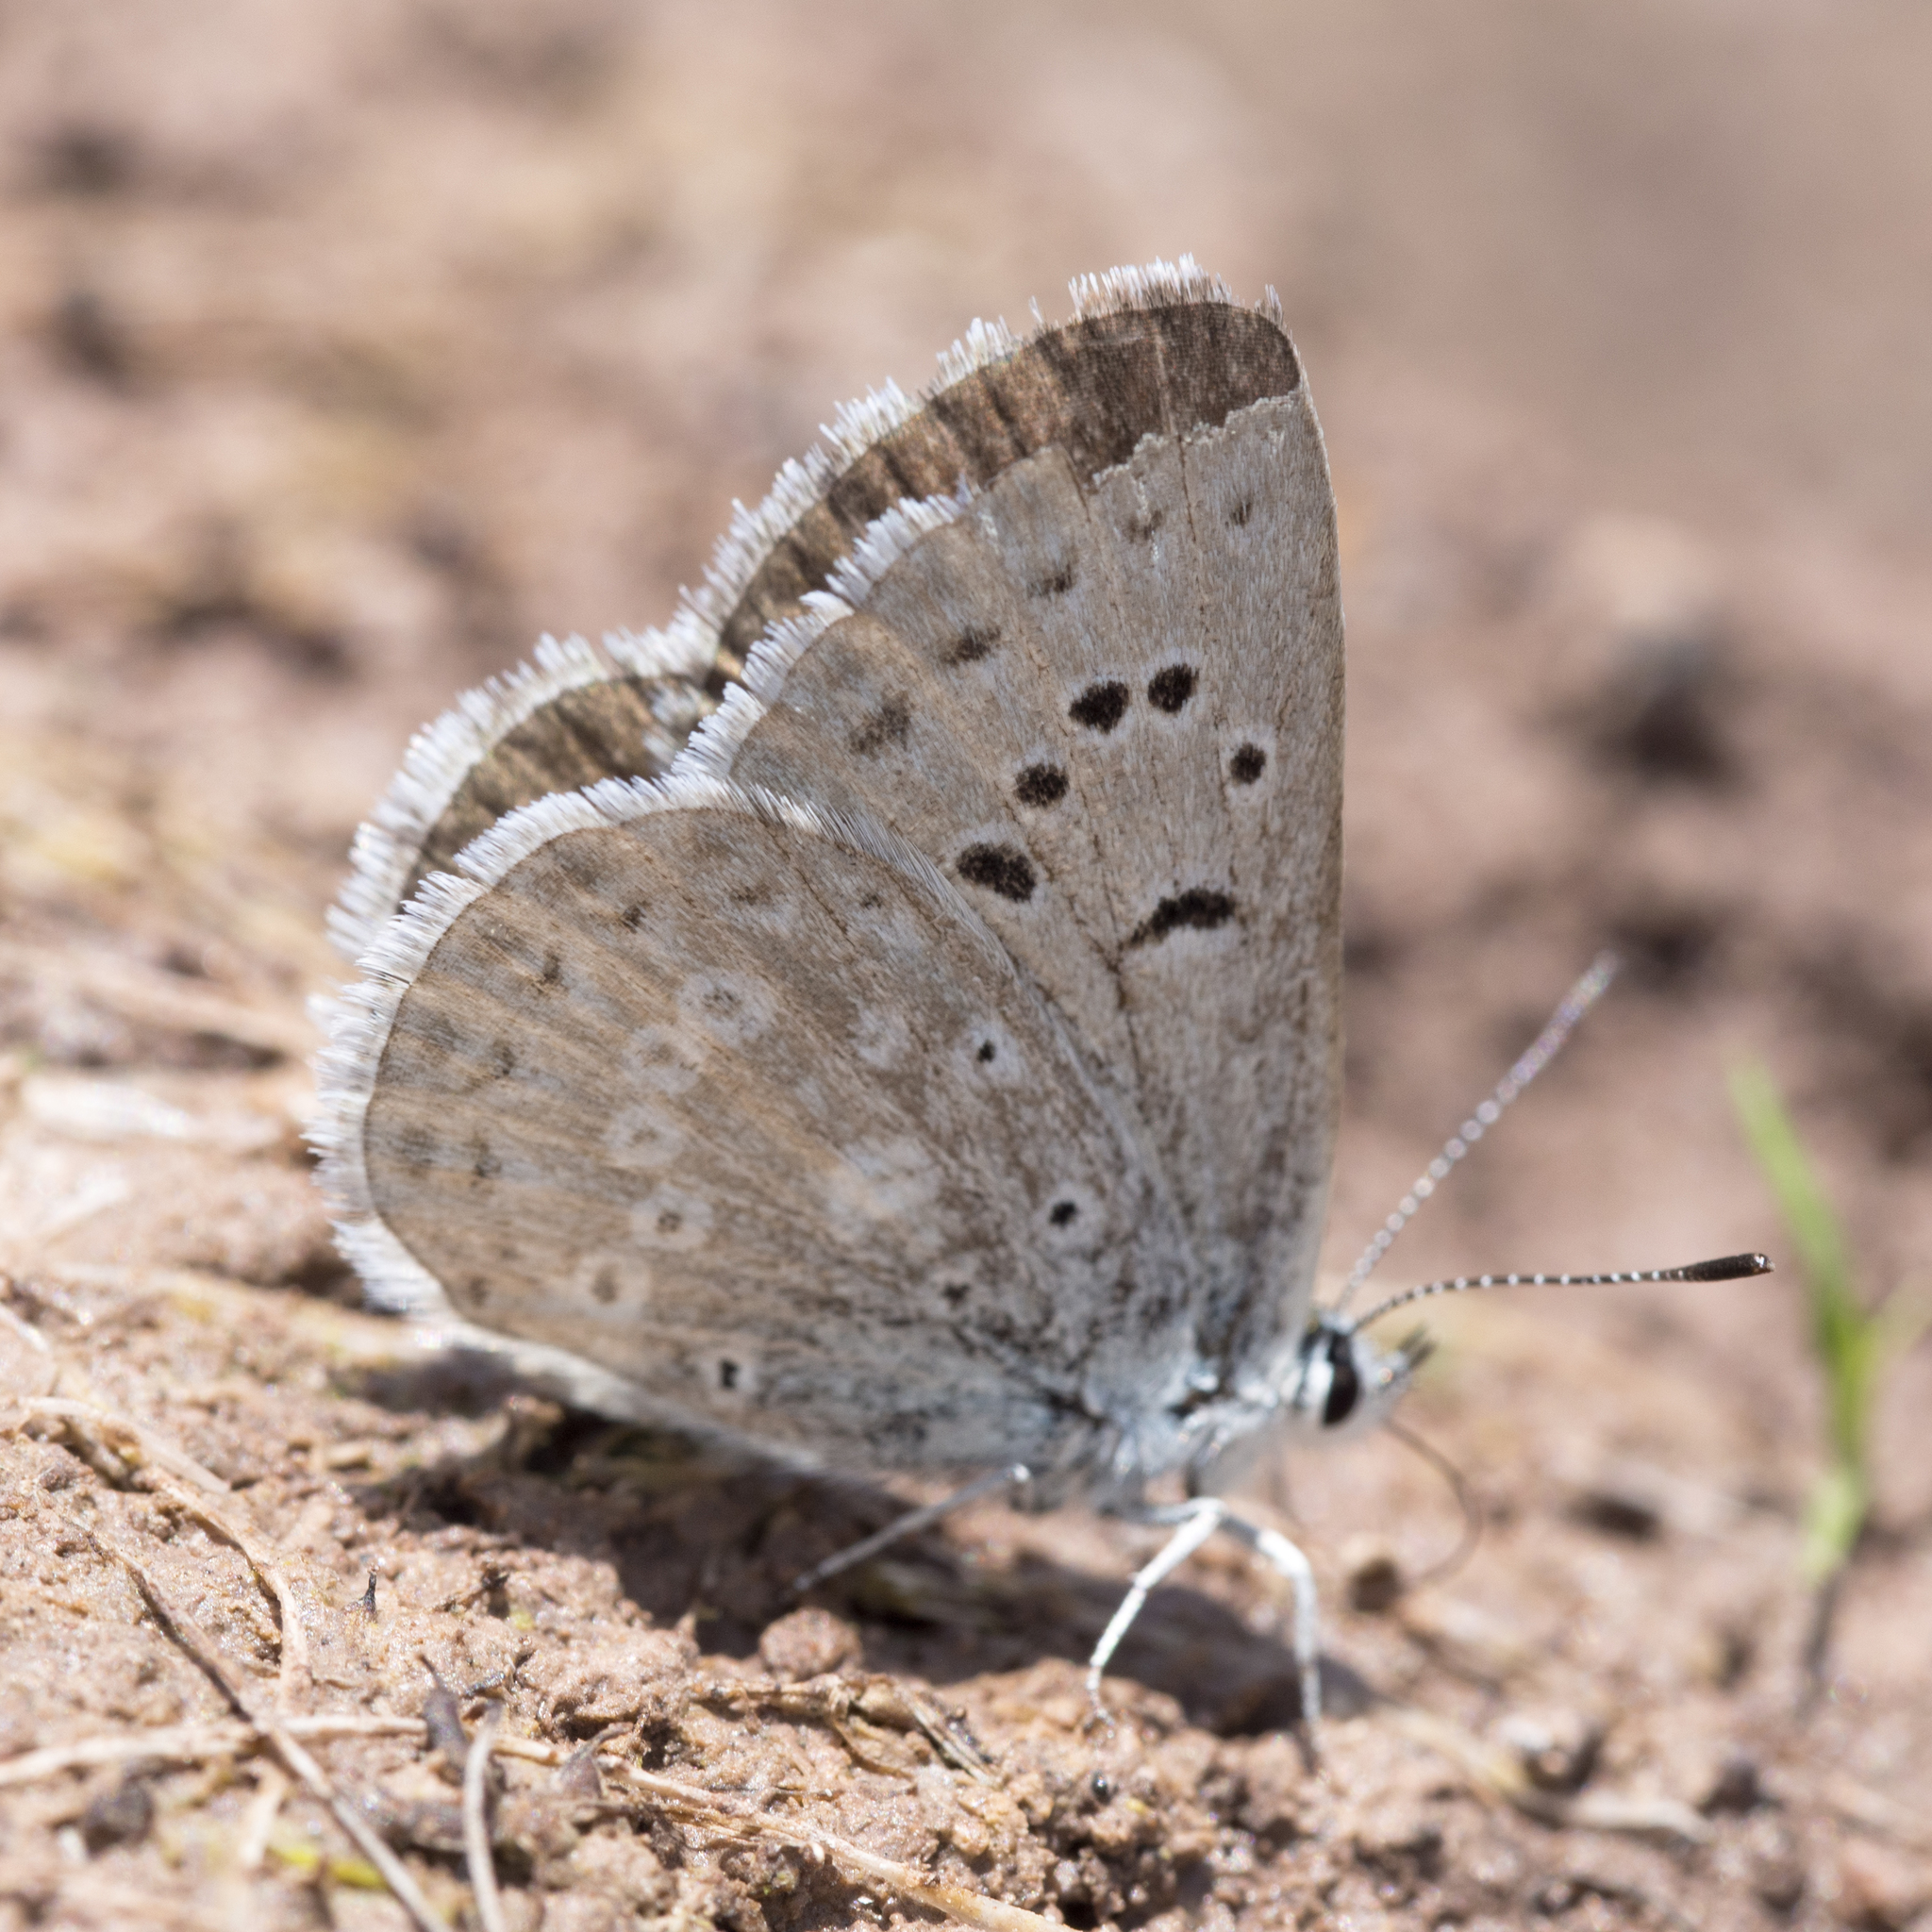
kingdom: Animalia
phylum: Arthropoda
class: Insecta
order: Lepidoptera
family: Lycaenidae
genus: Icaricia
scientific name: Icaricia icarioides
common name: Boisduval's blue
